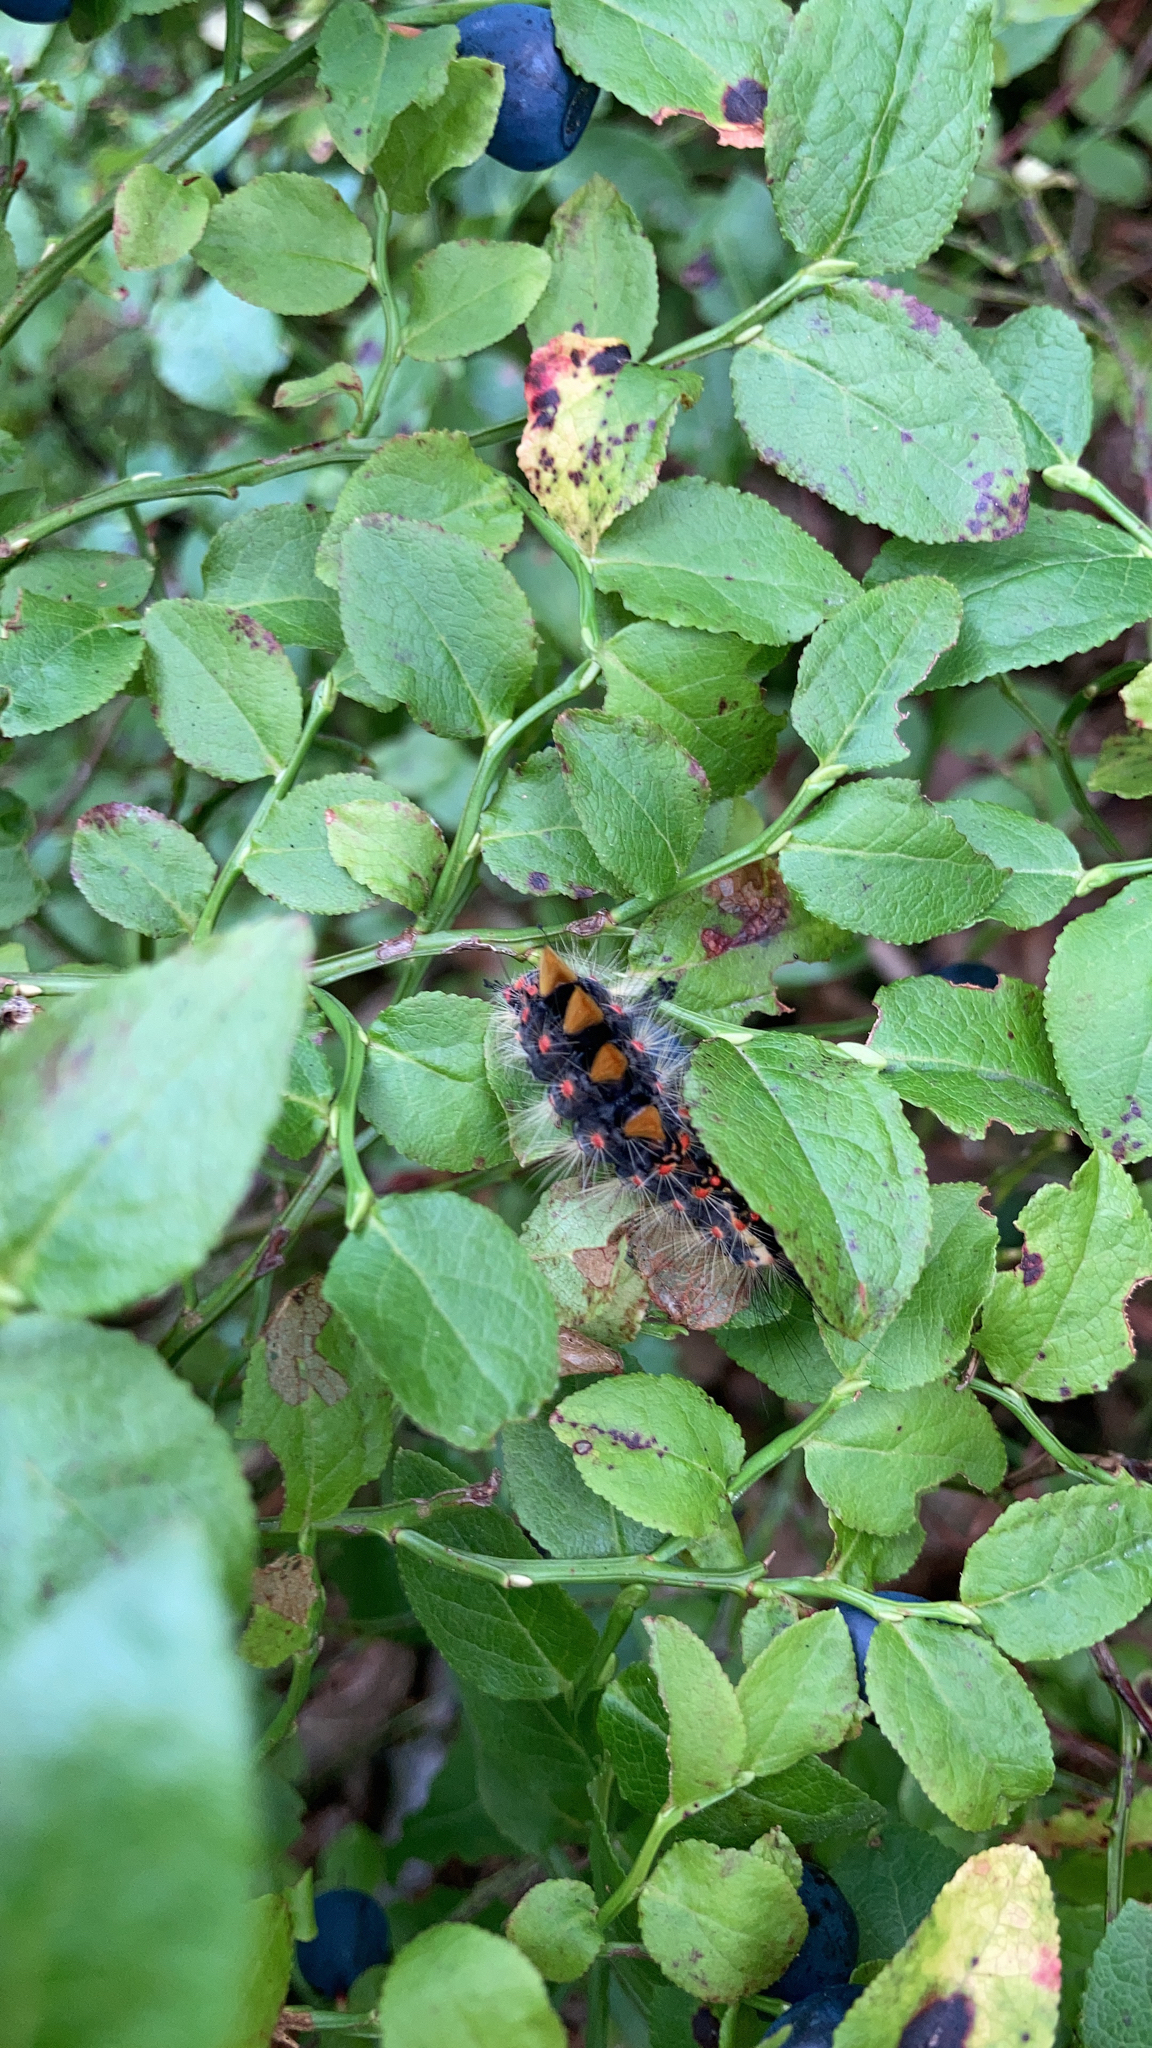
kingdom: Animalia
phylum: Arthropoda
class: Insecta
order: Lepidoptera
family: Erebidae
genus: Orgyia
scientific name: Orgyia antiqua
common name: Vapourer
